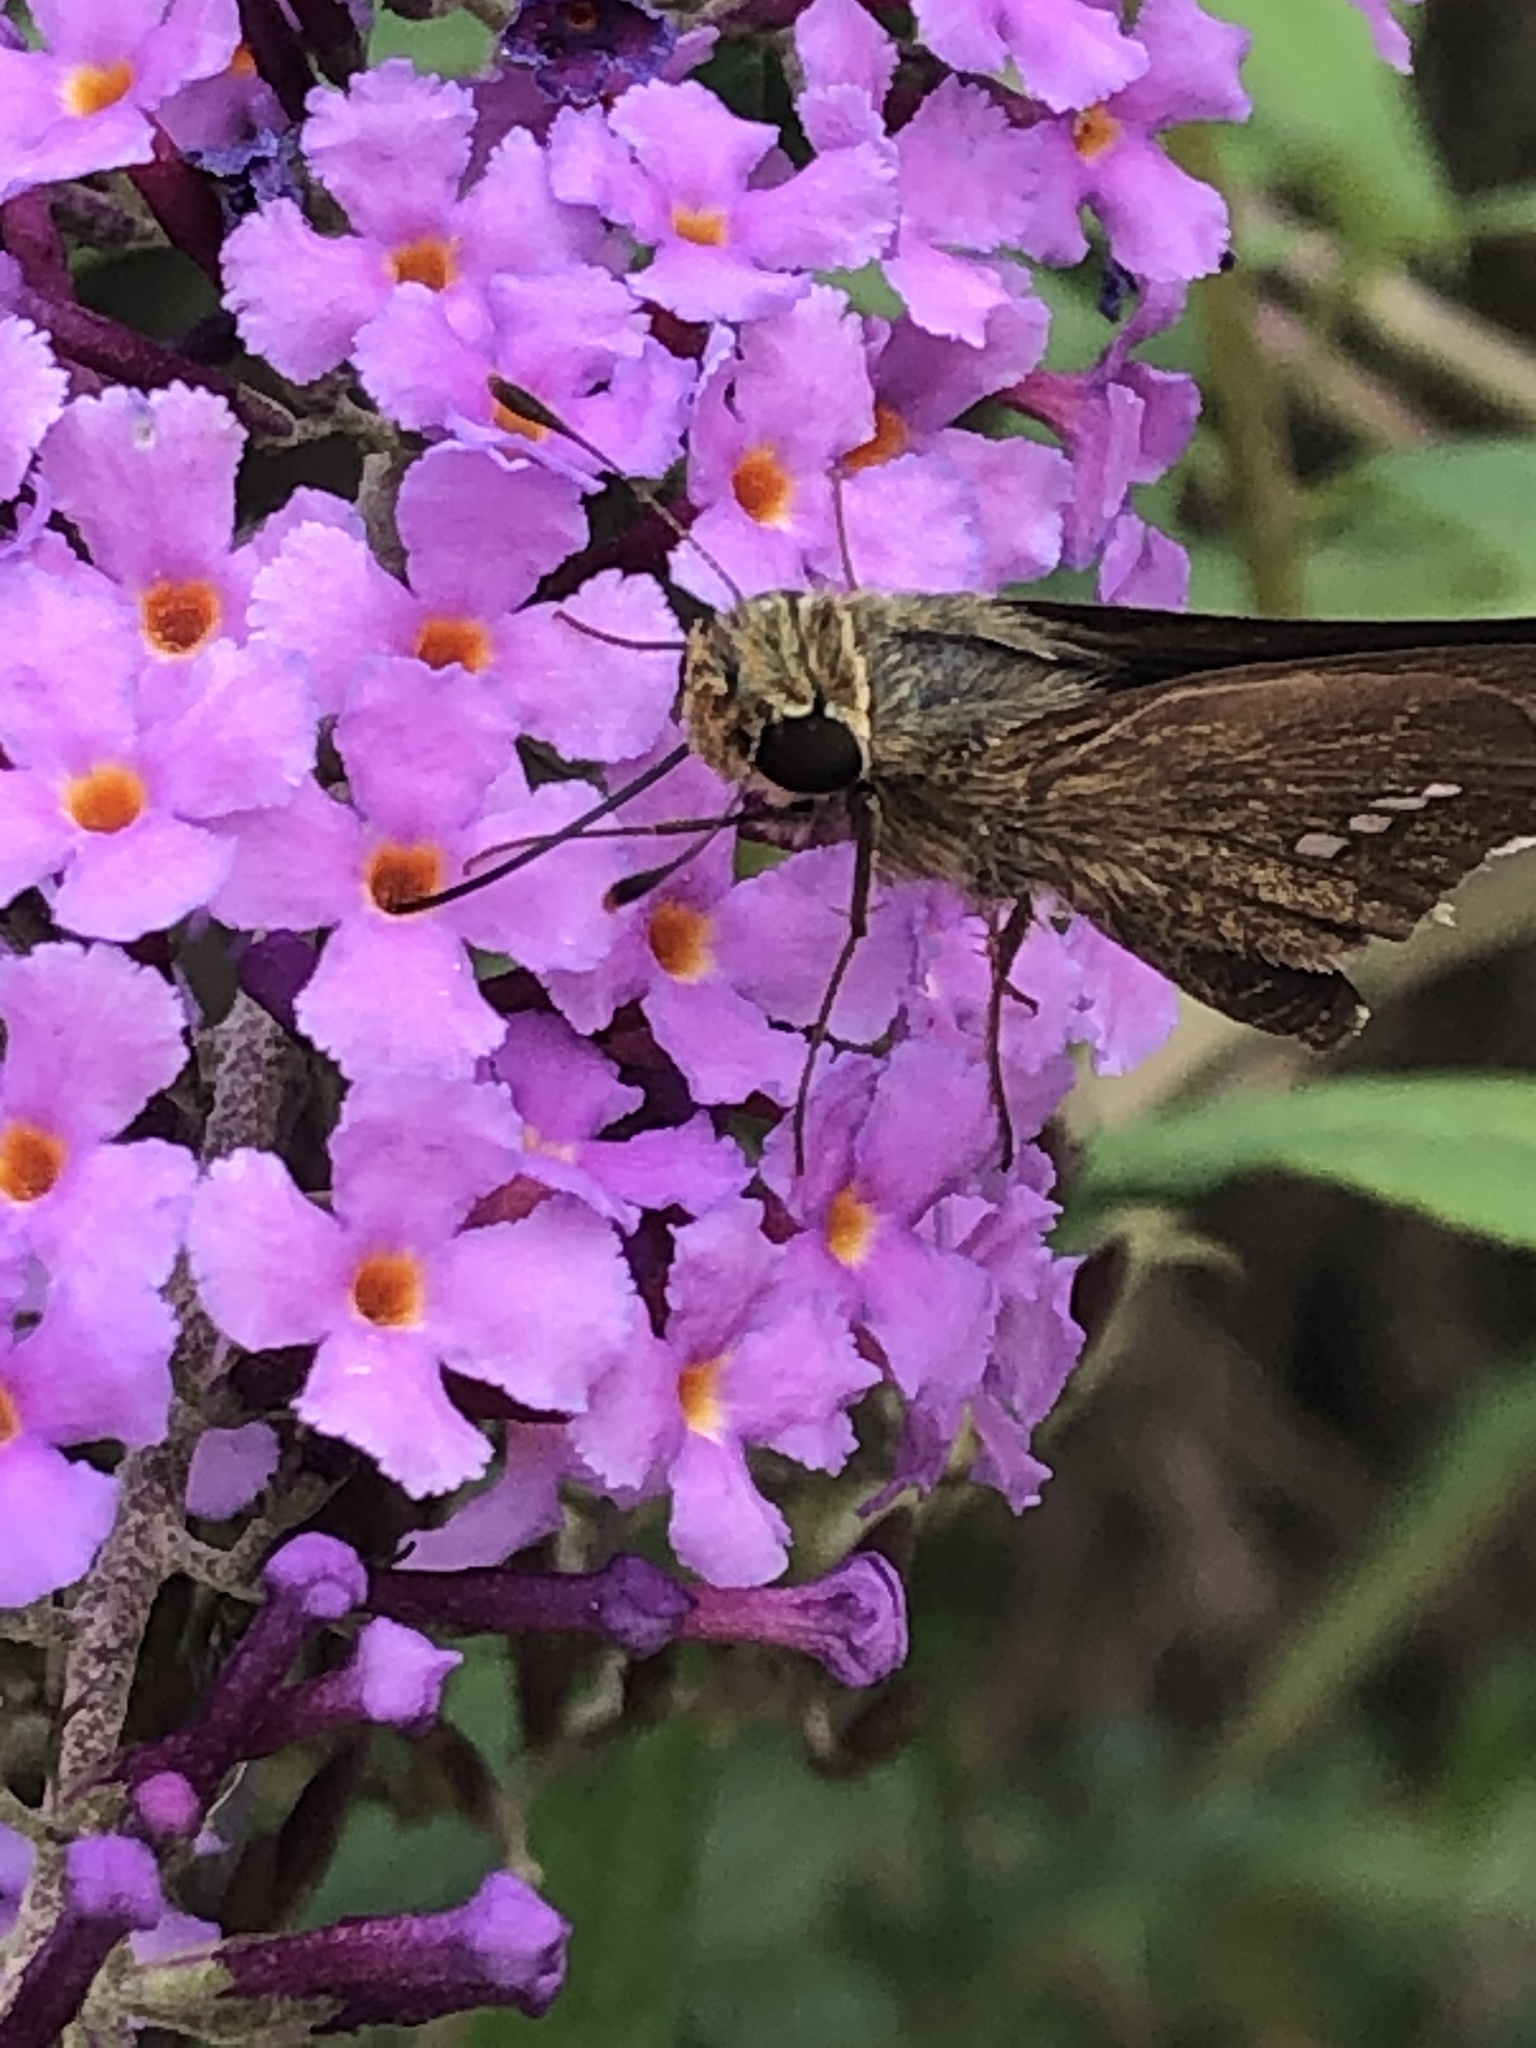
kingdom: Animalia
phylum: Arthropoda
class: Insecta
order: Lepidoptera
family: Hesperiidae
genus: Parnara
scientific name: Parnara guttatus
